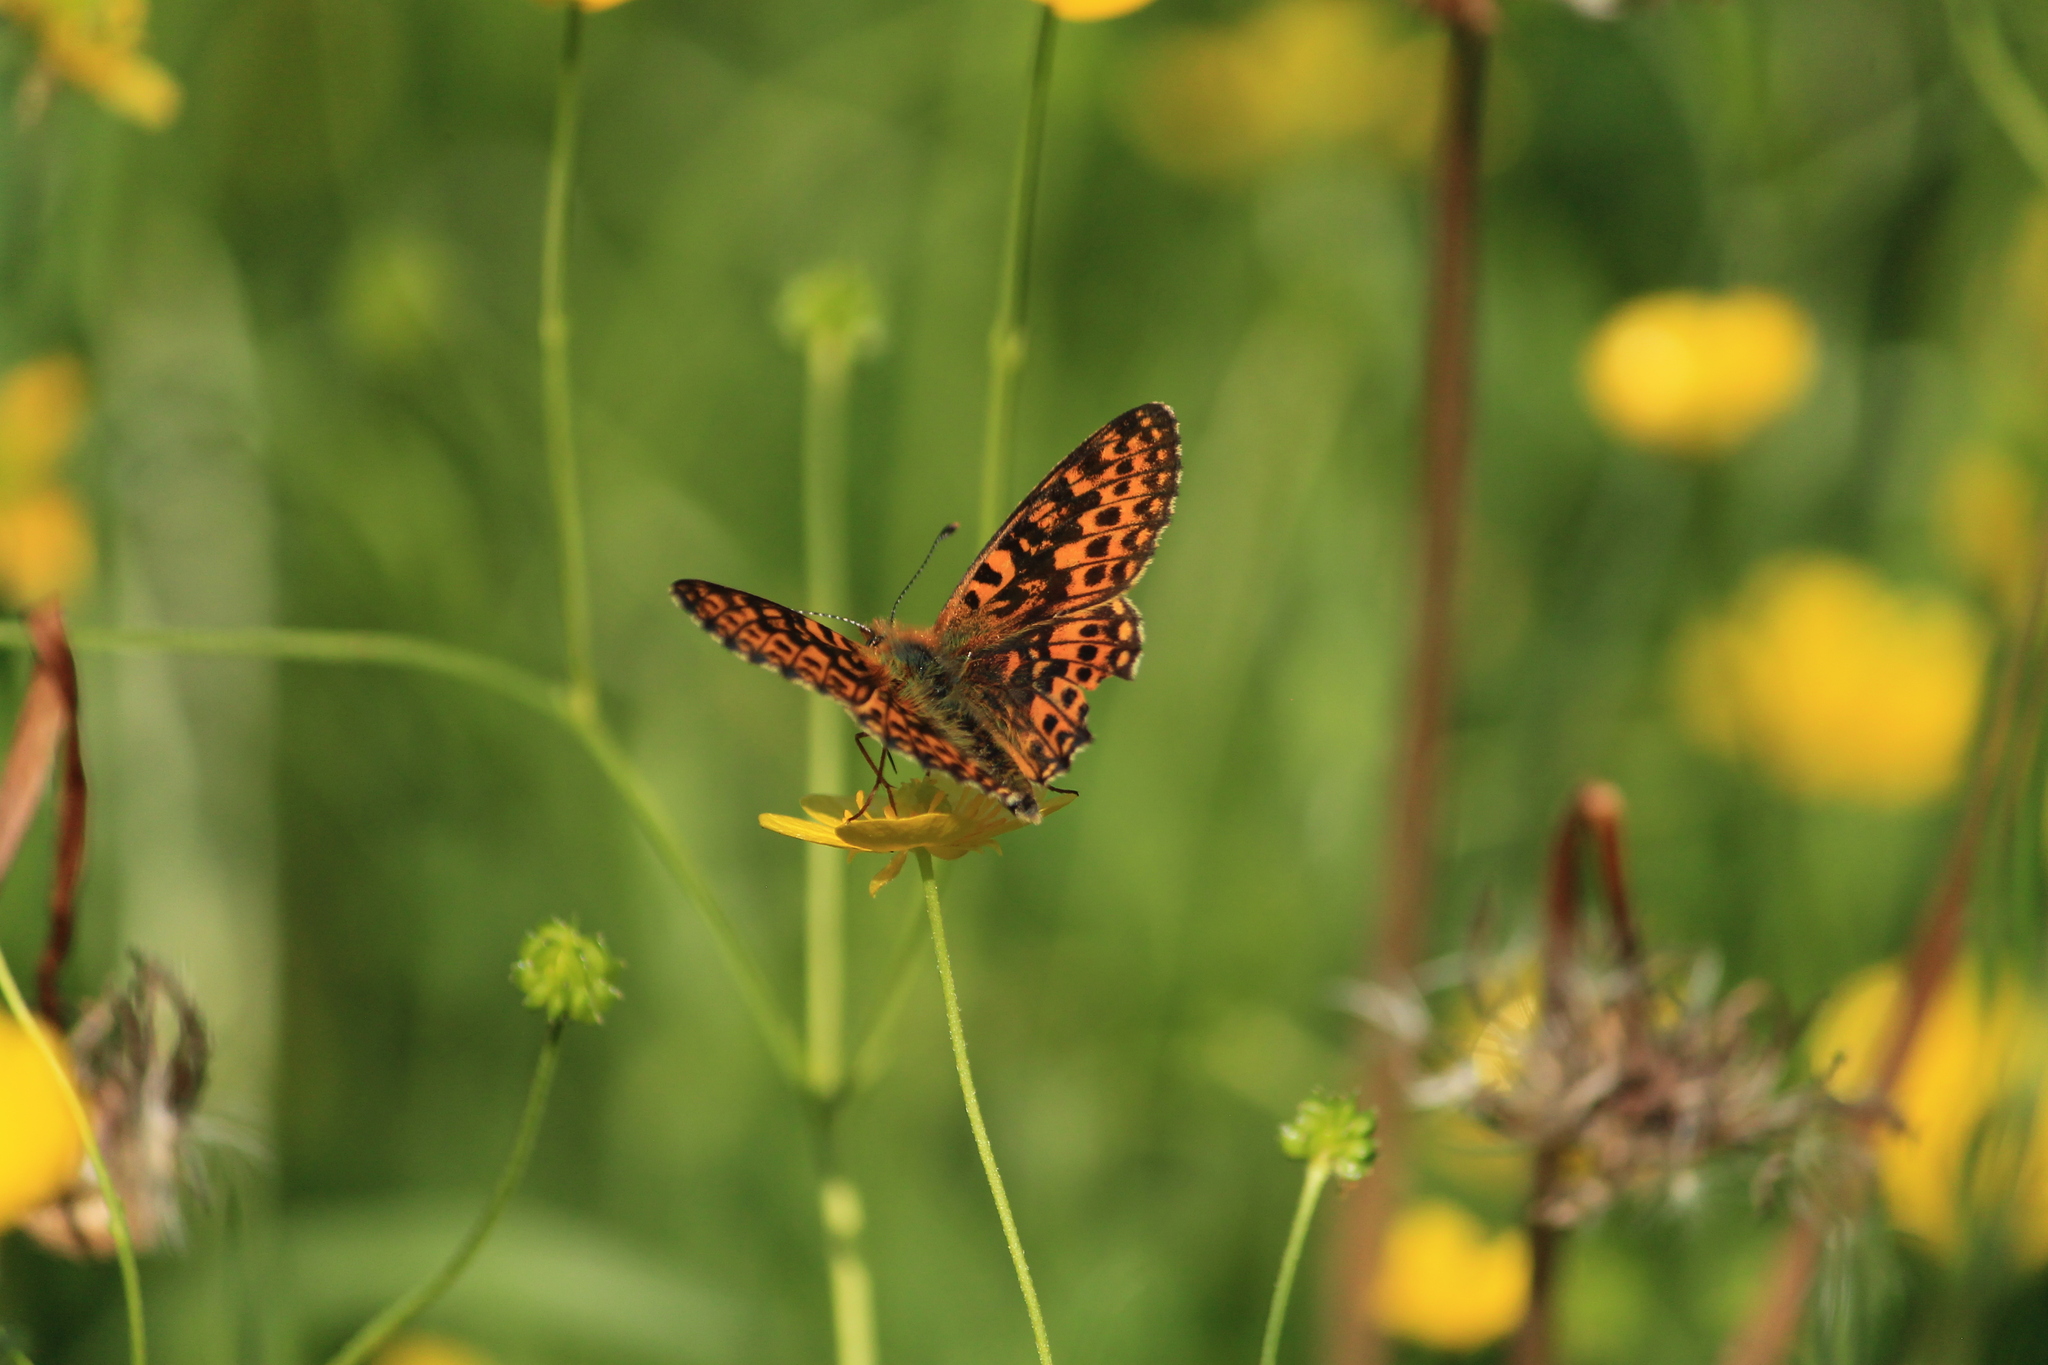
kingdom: Animalia
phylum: Arthropoda
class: Insecta
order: Lepidoptera
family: Nymphalidae
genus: Clossiana
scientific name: Clossiana euphrosyne
